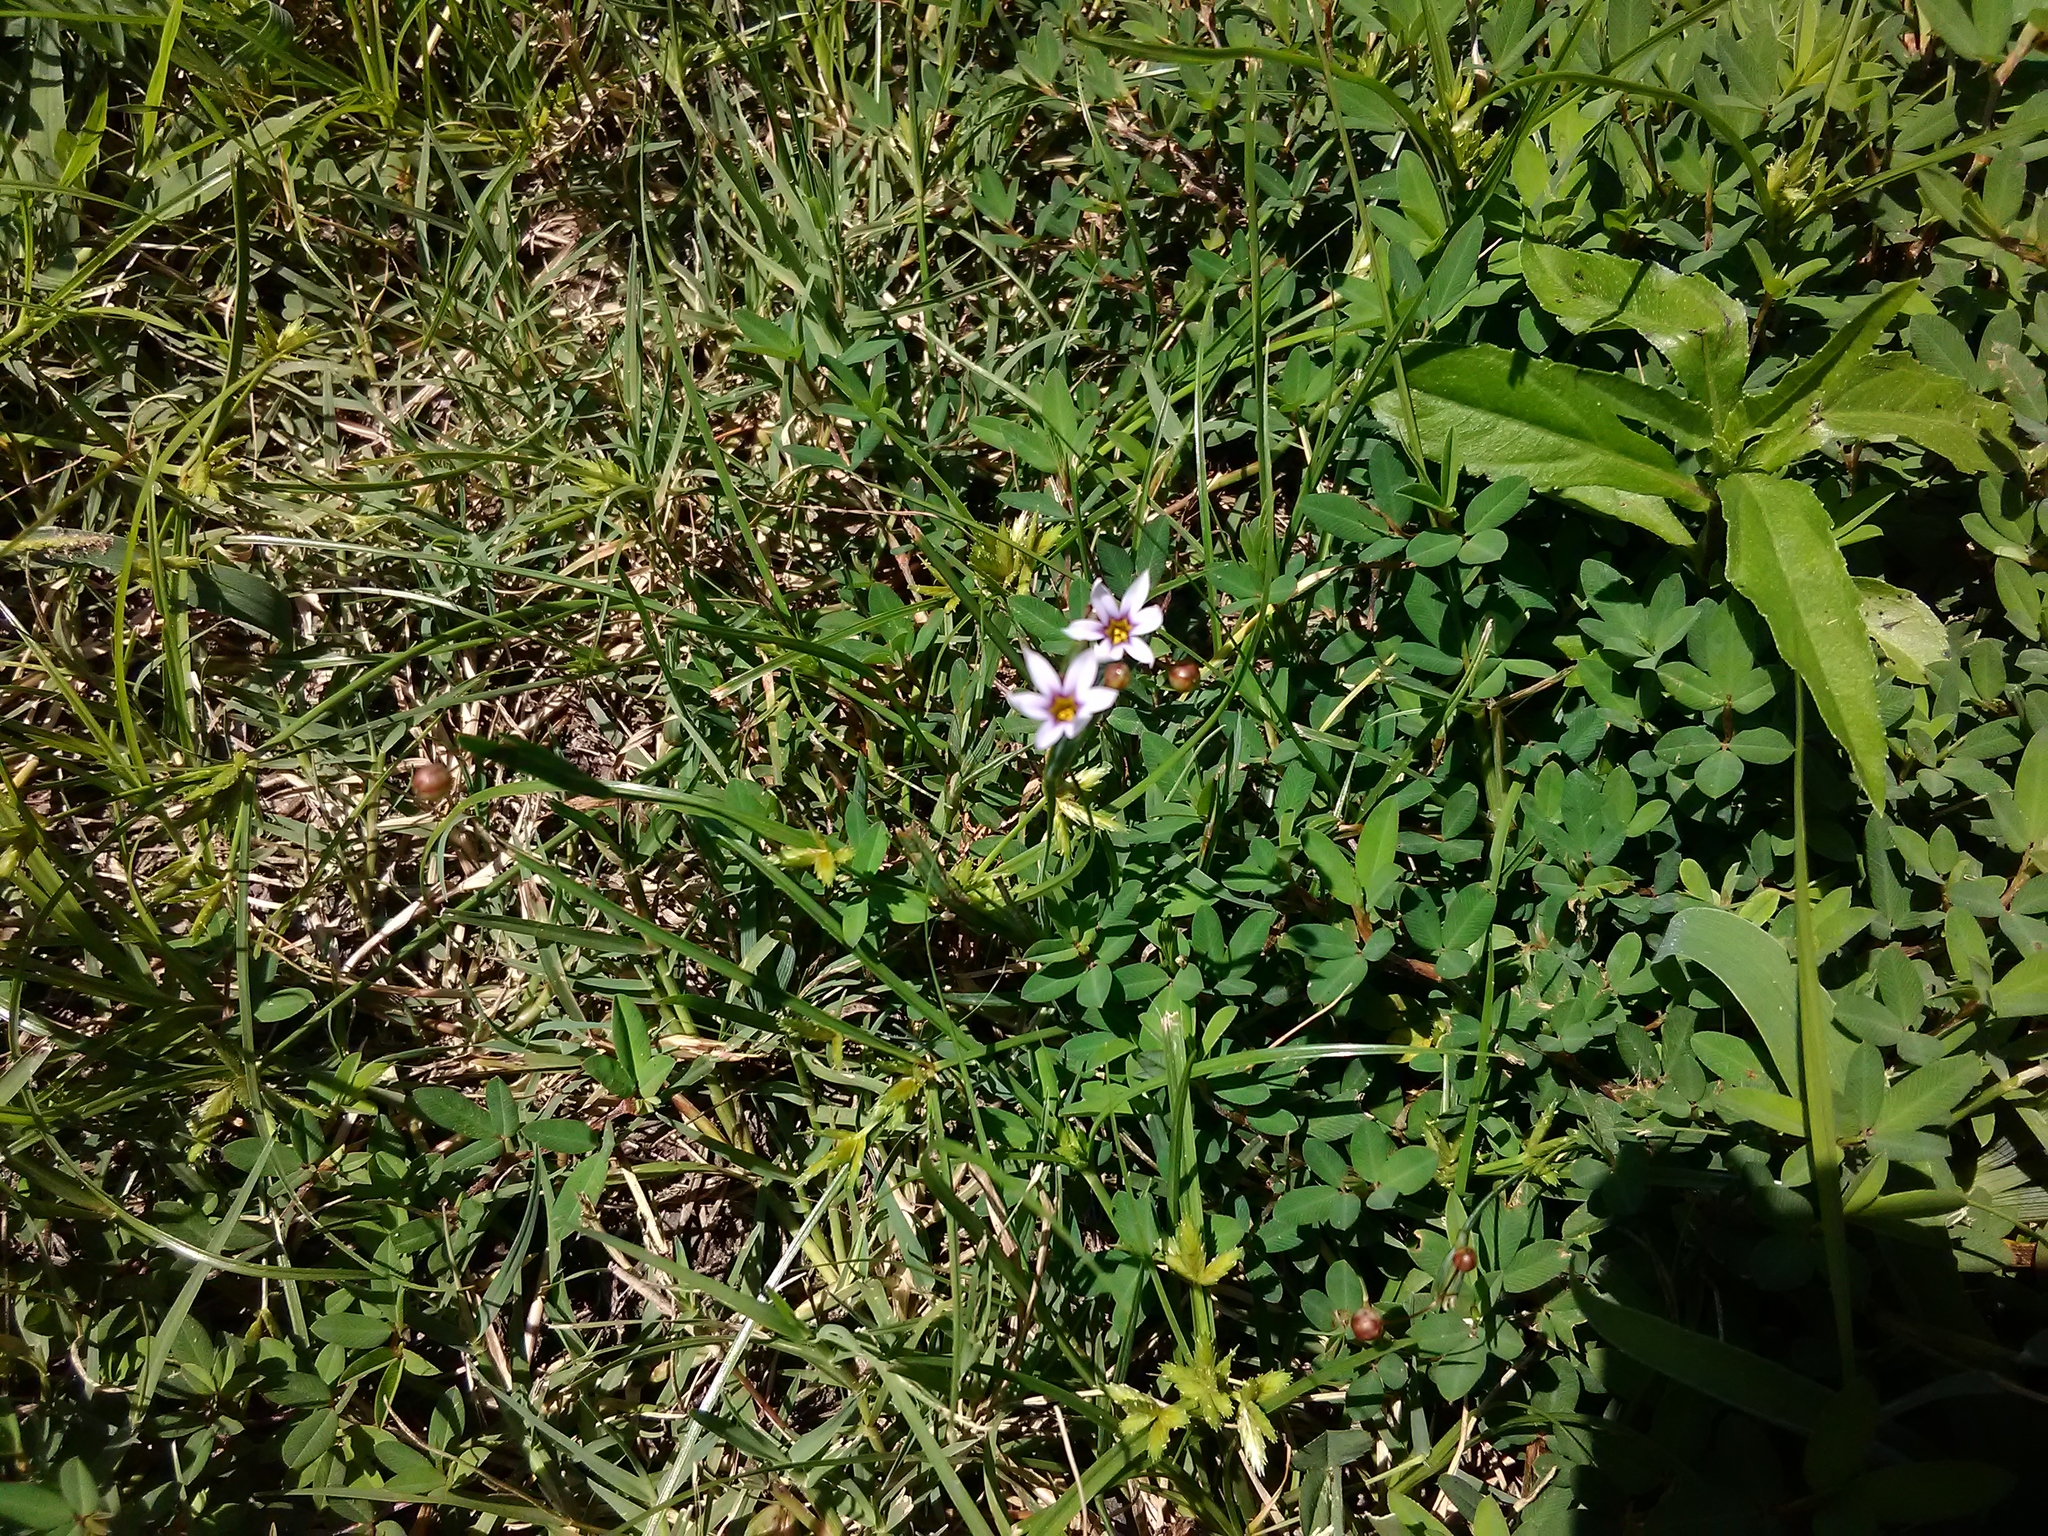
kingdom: Plantae
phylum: Tracheophyta
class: Liliopsida
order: Asparagales
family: Iridaceae
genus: Sisyrinchium
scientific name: Sisyrinchium micranthum
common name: Bermuda pigroot
